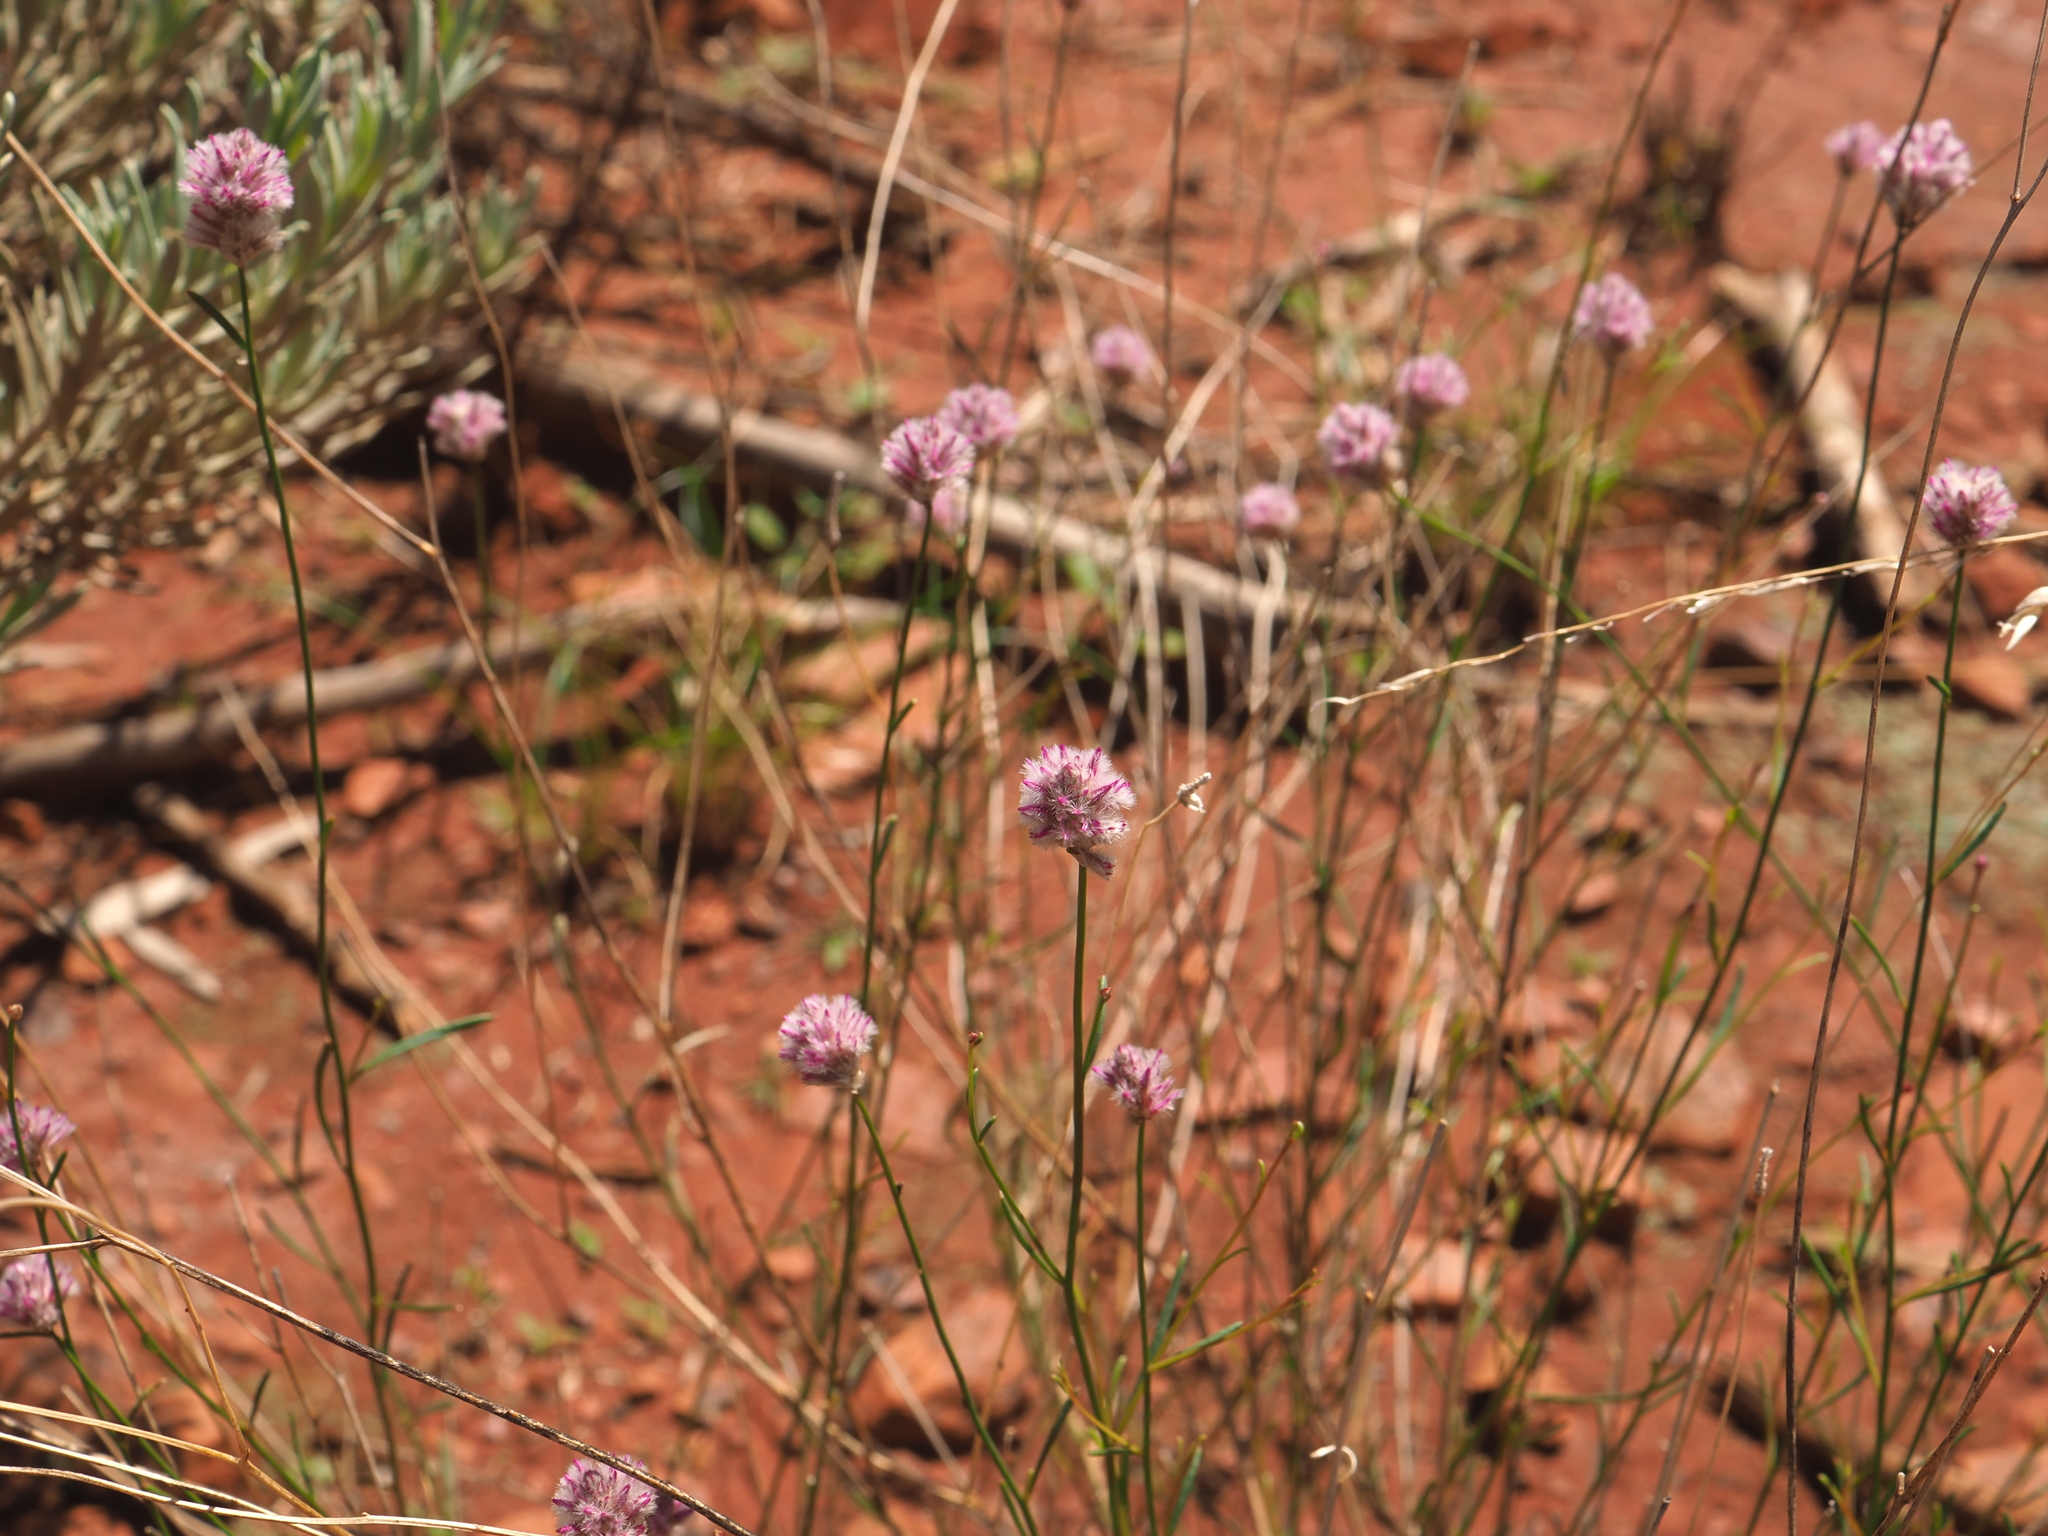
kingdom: Plantae
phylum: Tracheophyta
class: Magnoliopsida
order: Caryophyllales
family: Amaranthaceae
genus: Ptilotus
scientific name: Ptilotus schwartzii
